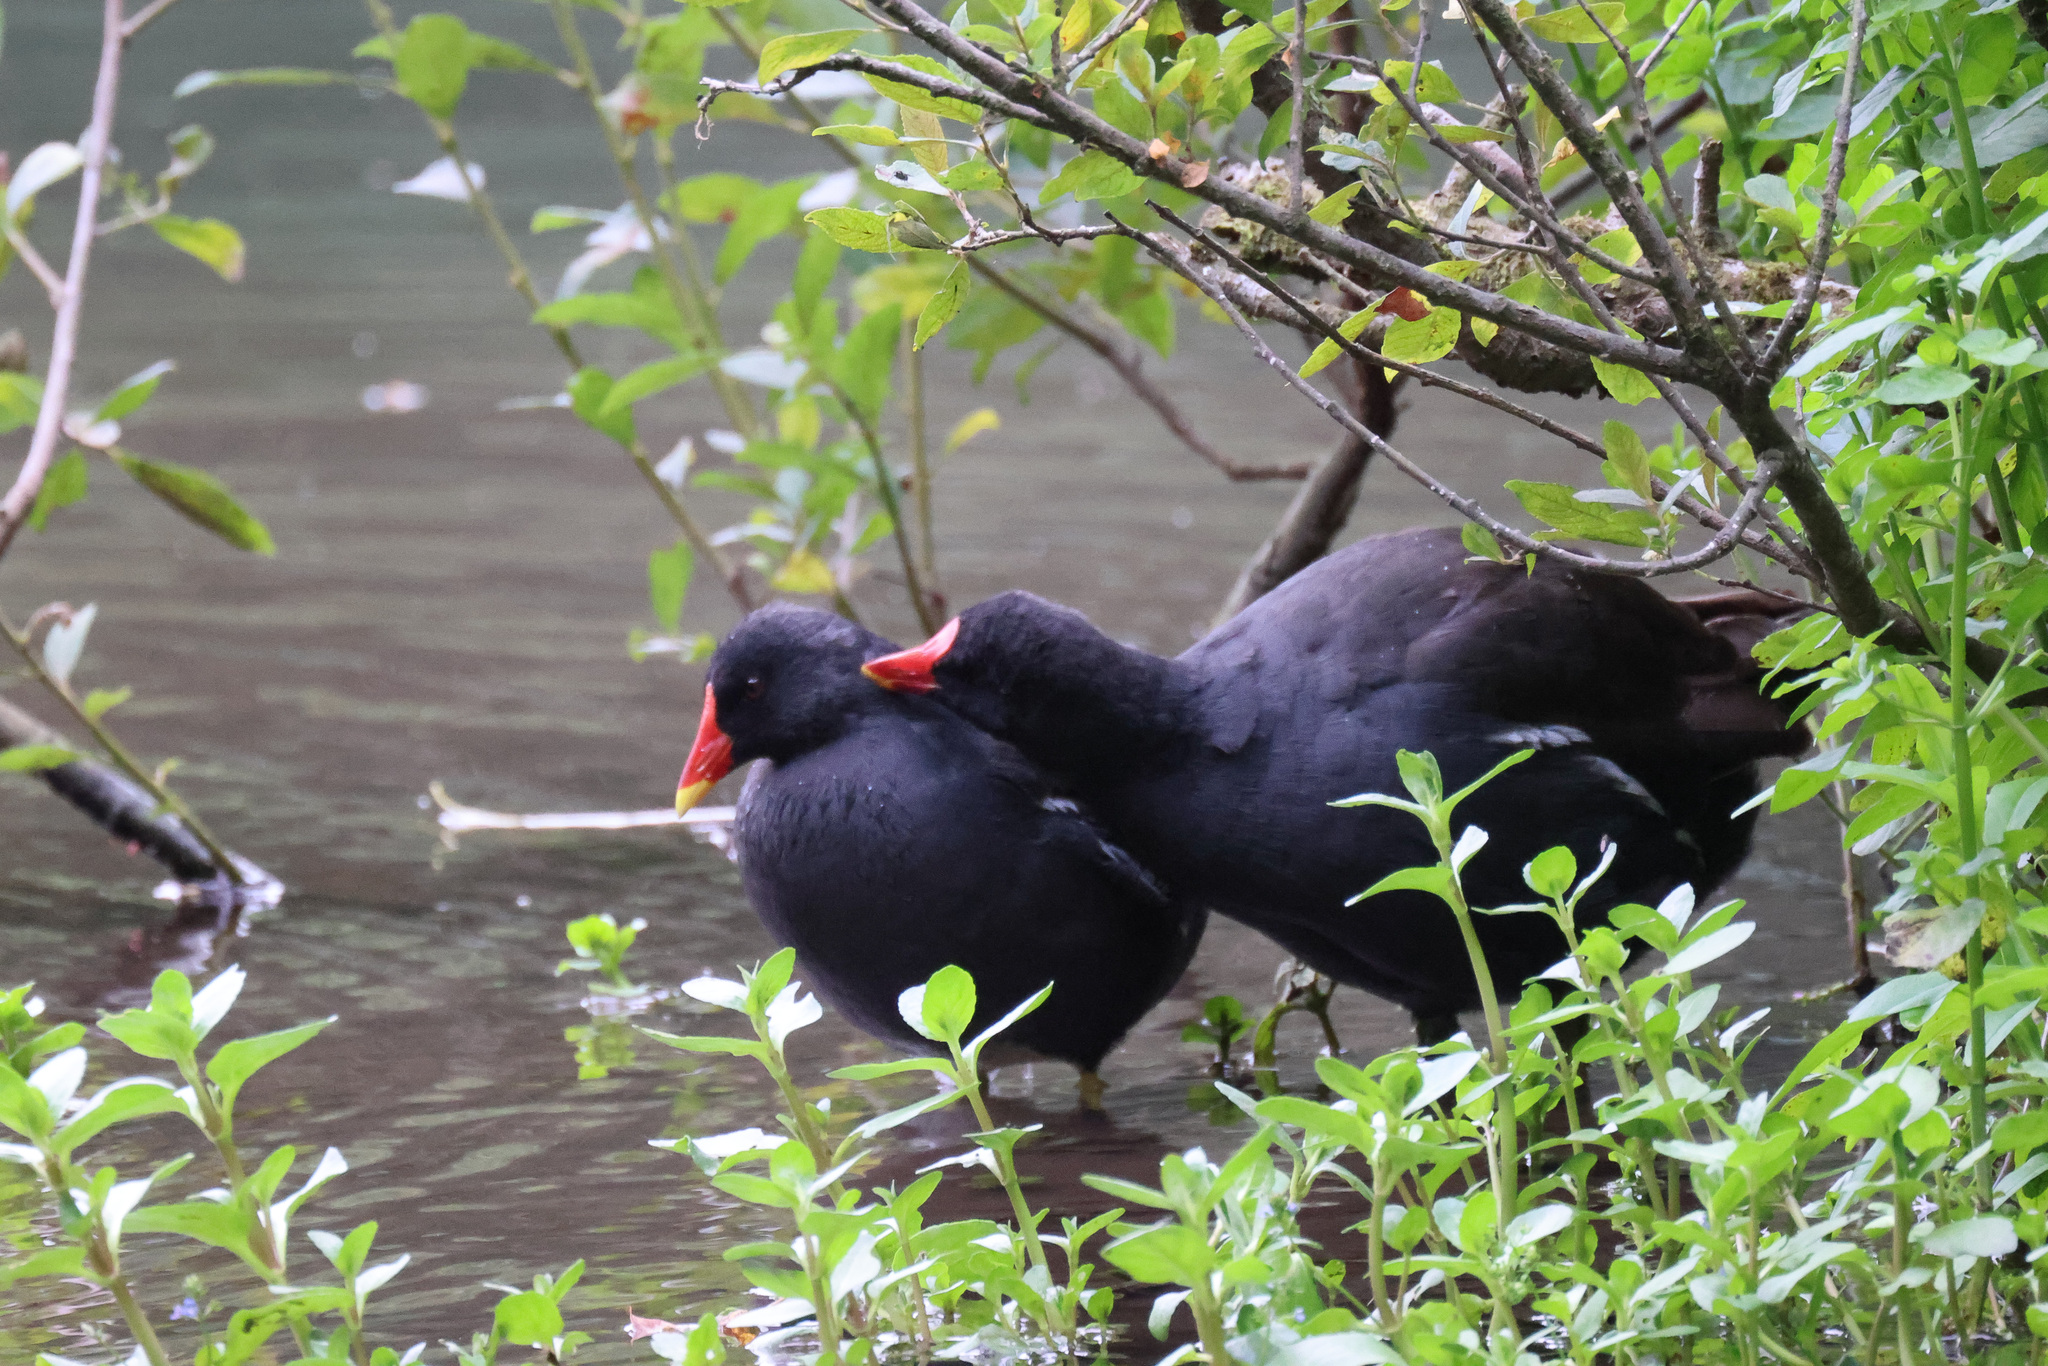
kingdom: Animalia
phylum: Chordata
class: Aves
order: Gruiformes
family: Rallidae
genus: Gallinula
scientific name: Gallinula chloropus
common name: Common moorhen
